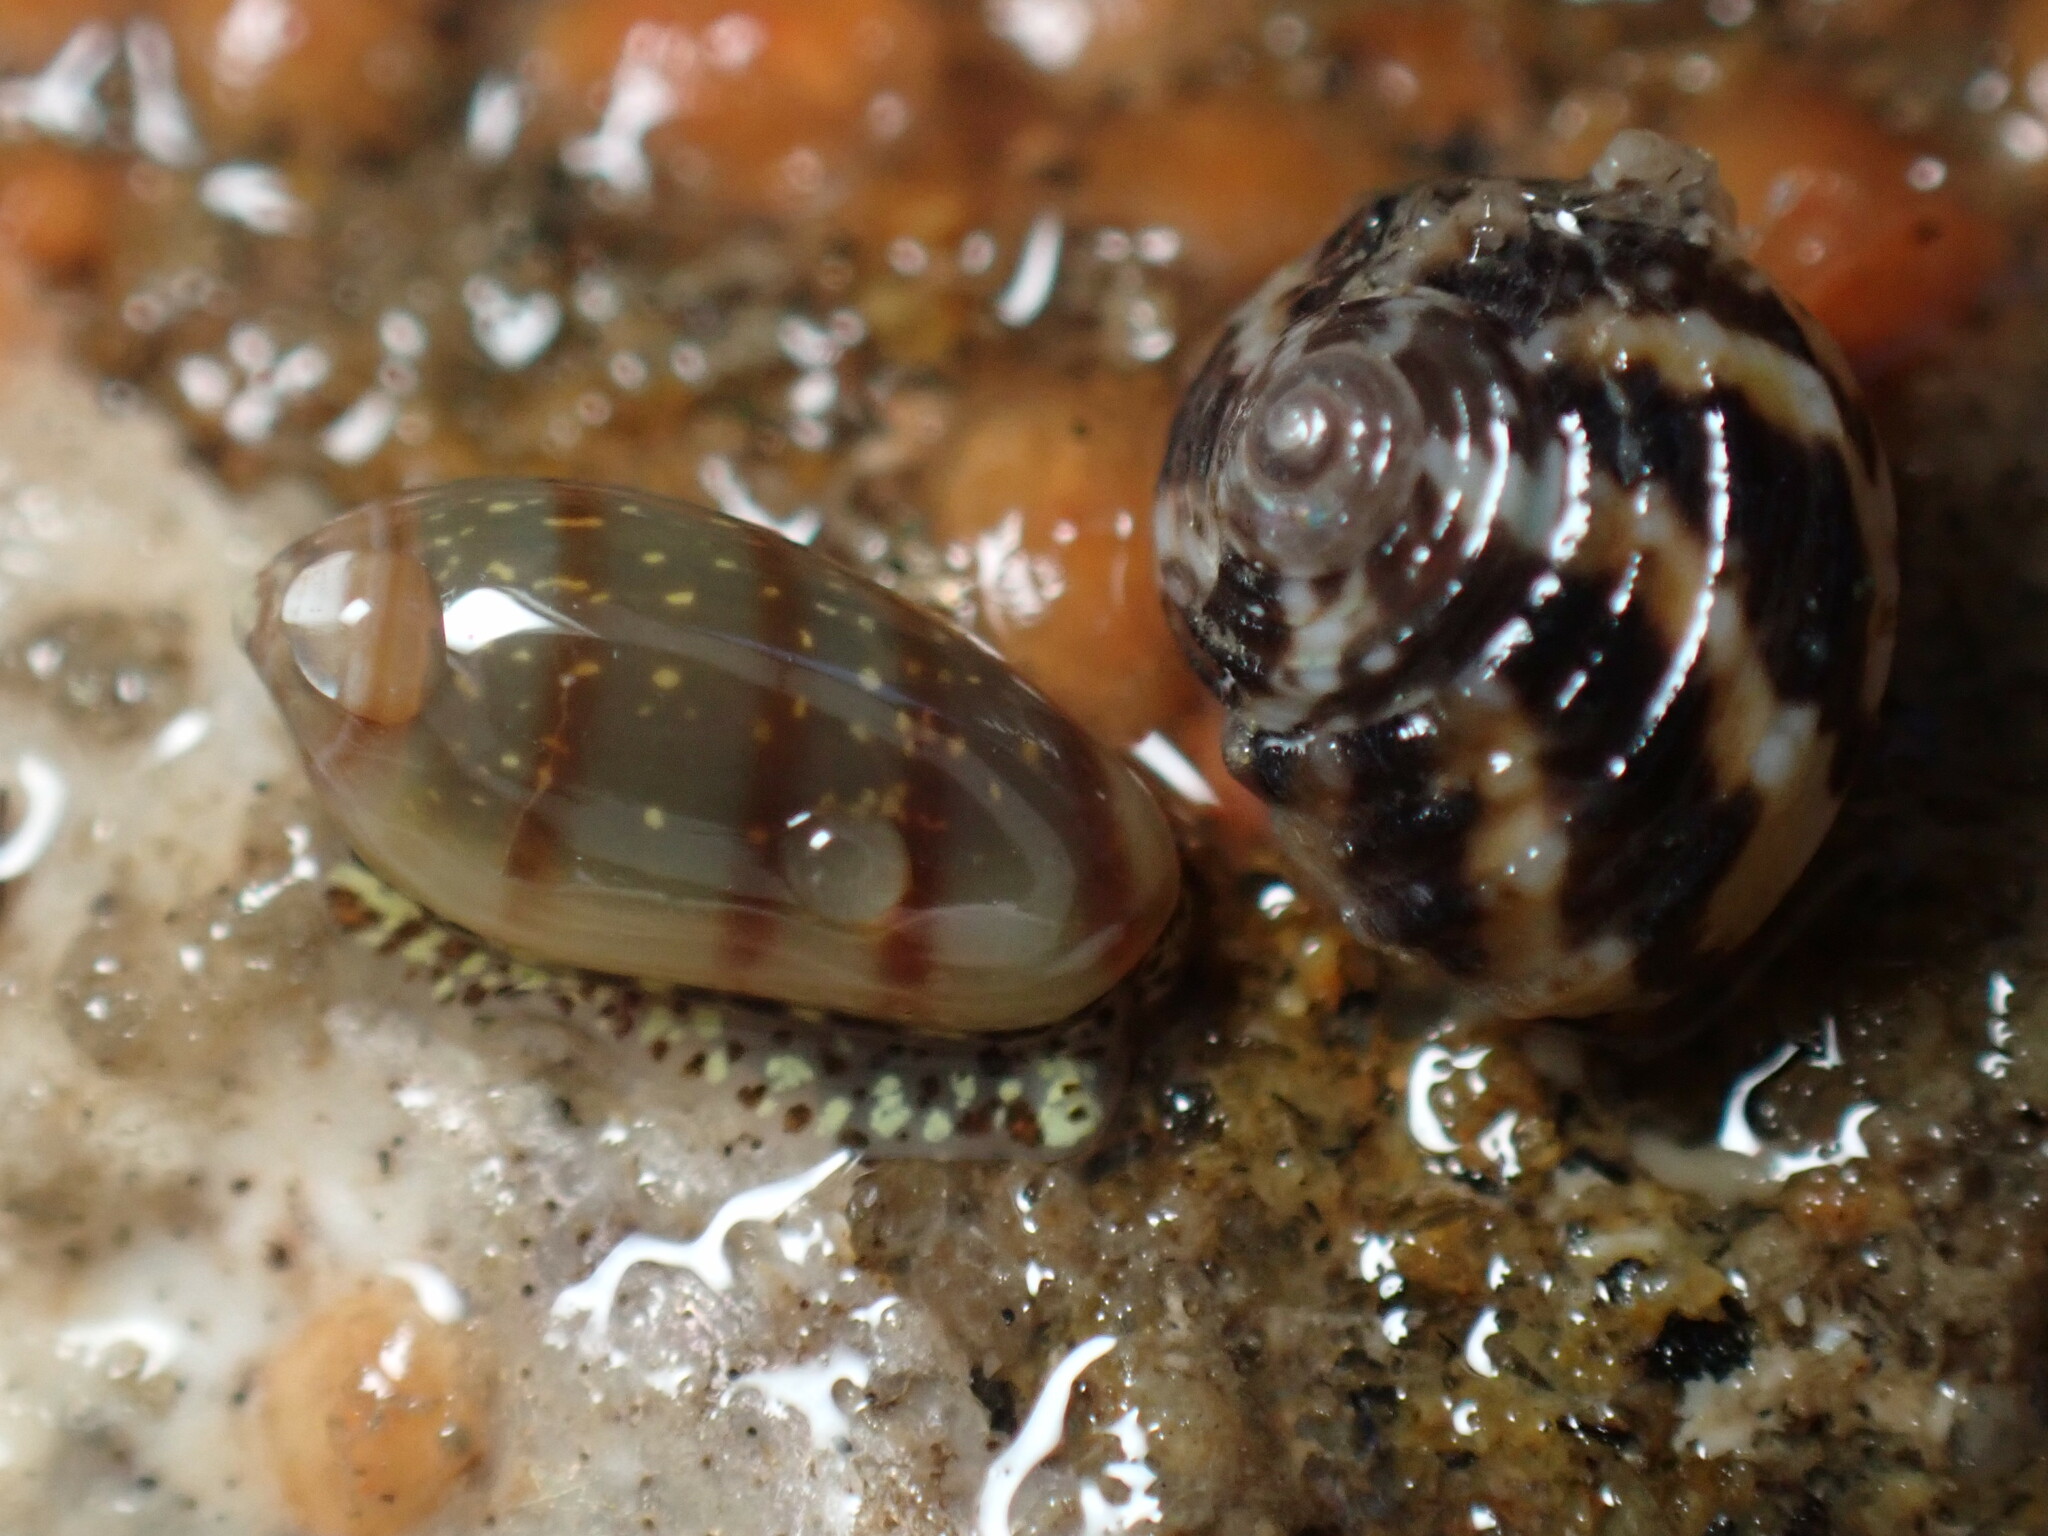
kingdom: Animalia
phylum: Mollusca
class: Gastropoda
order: Neogastropoda
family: Marginellidae
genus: Volvarina
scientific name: Volvarina taeniolata
